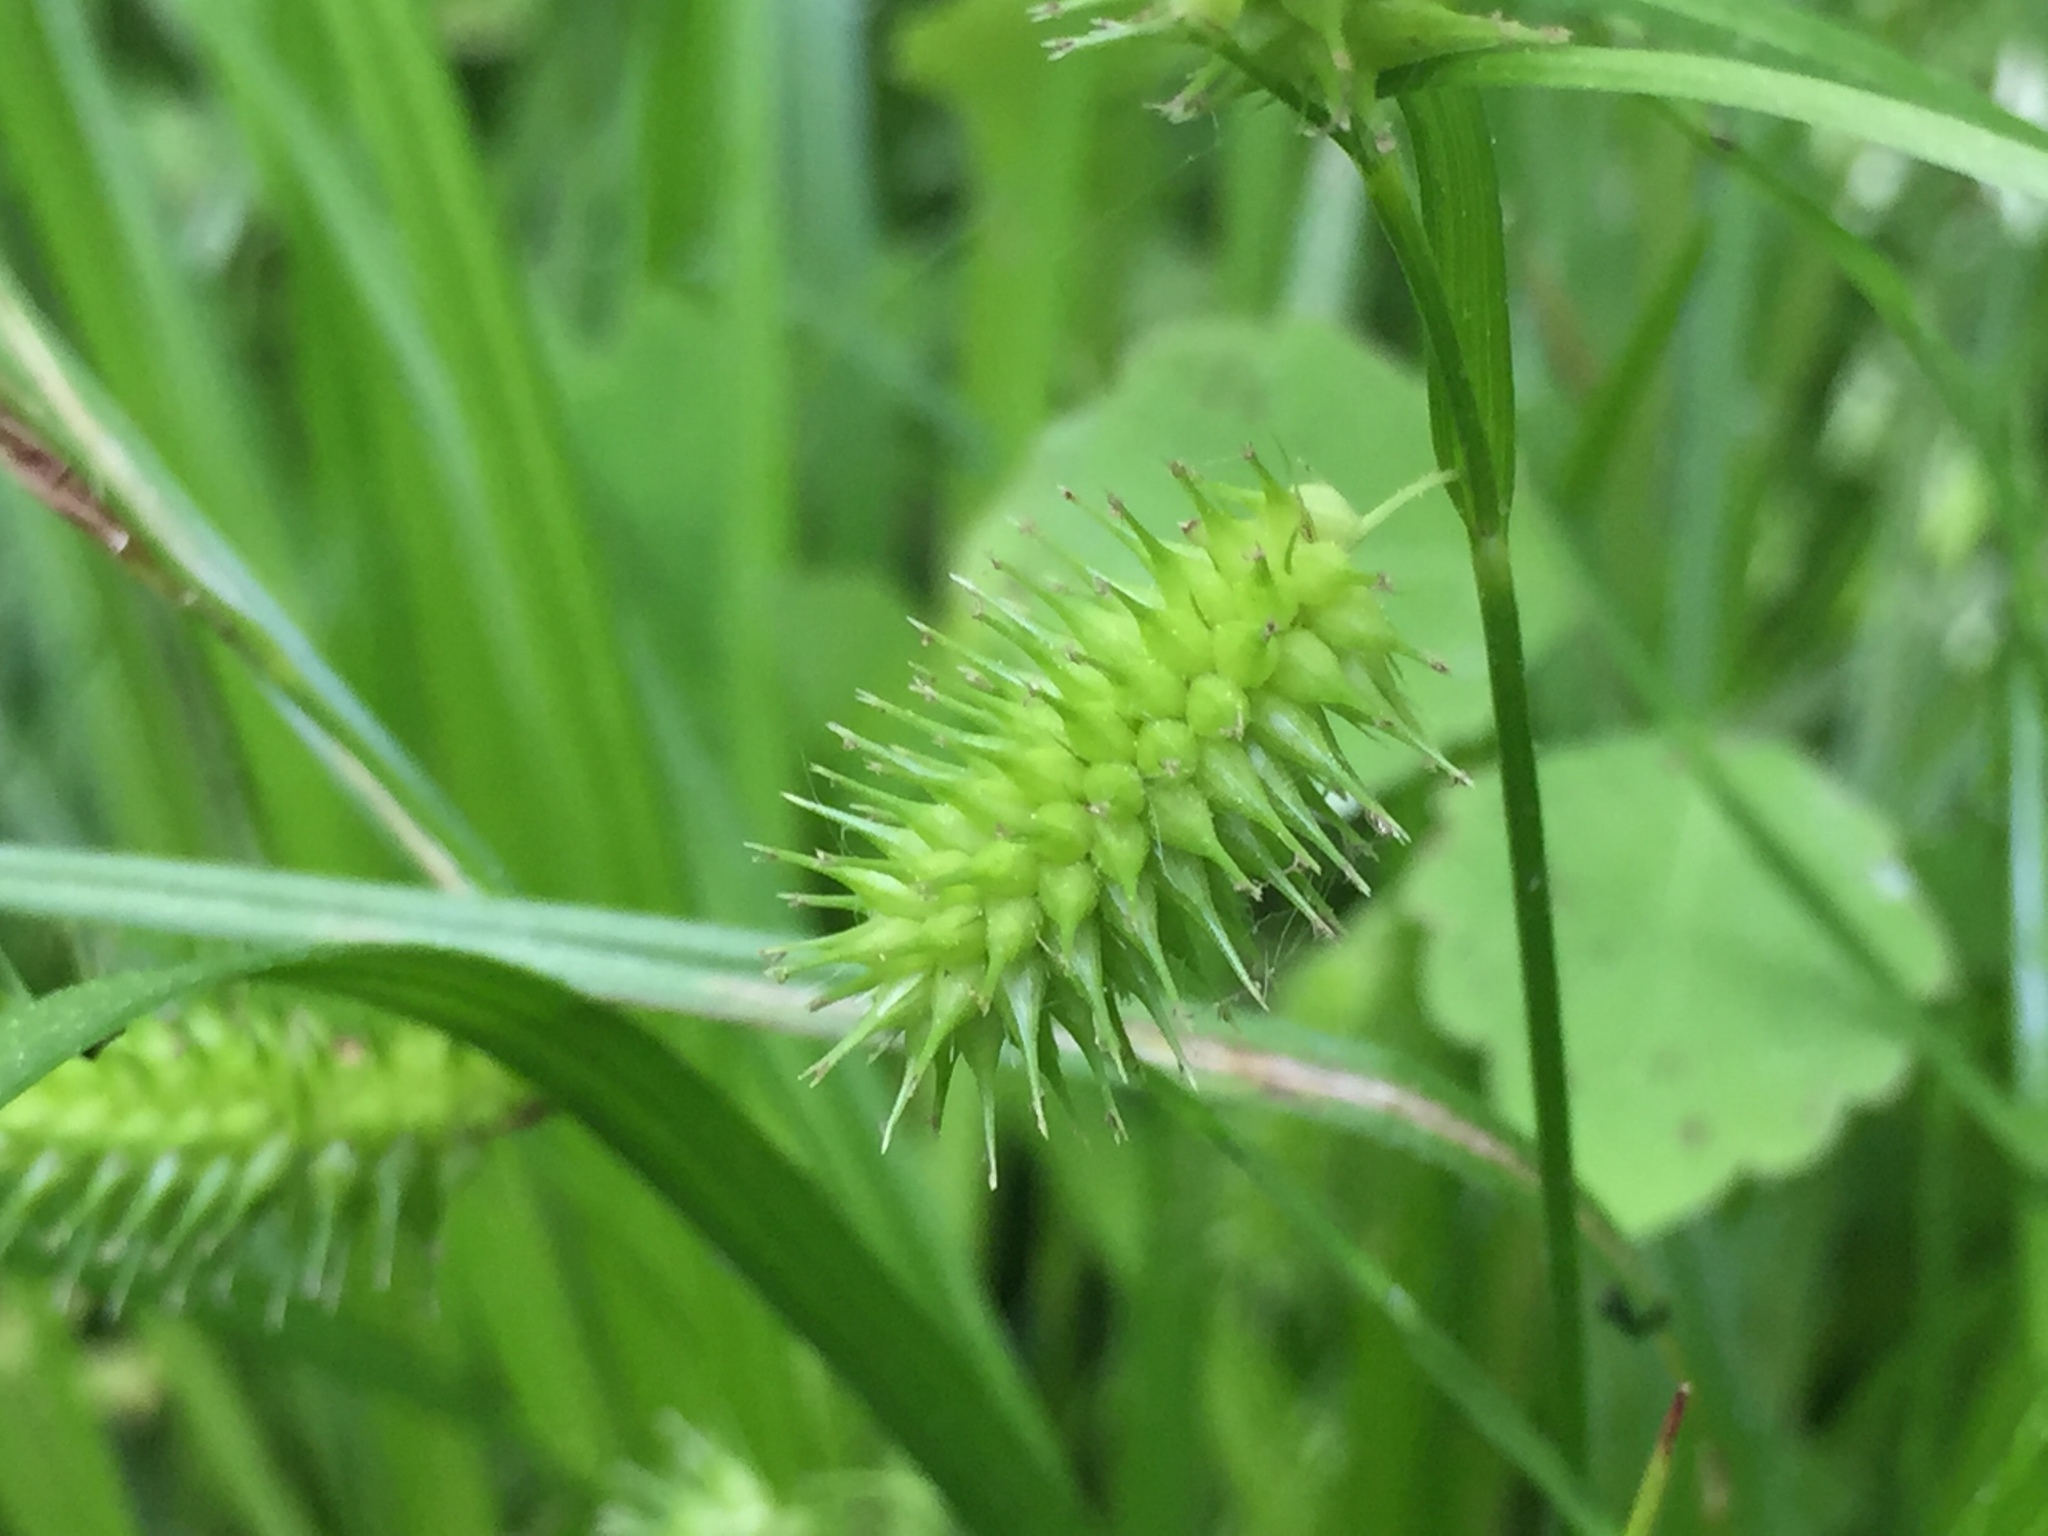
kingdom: Plantae
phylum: Tracheophyta
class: Liliopsida
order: Poales
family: Cyperaceae
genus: Carex
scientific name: Carex hystericina
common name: Bottlebrush sedge
